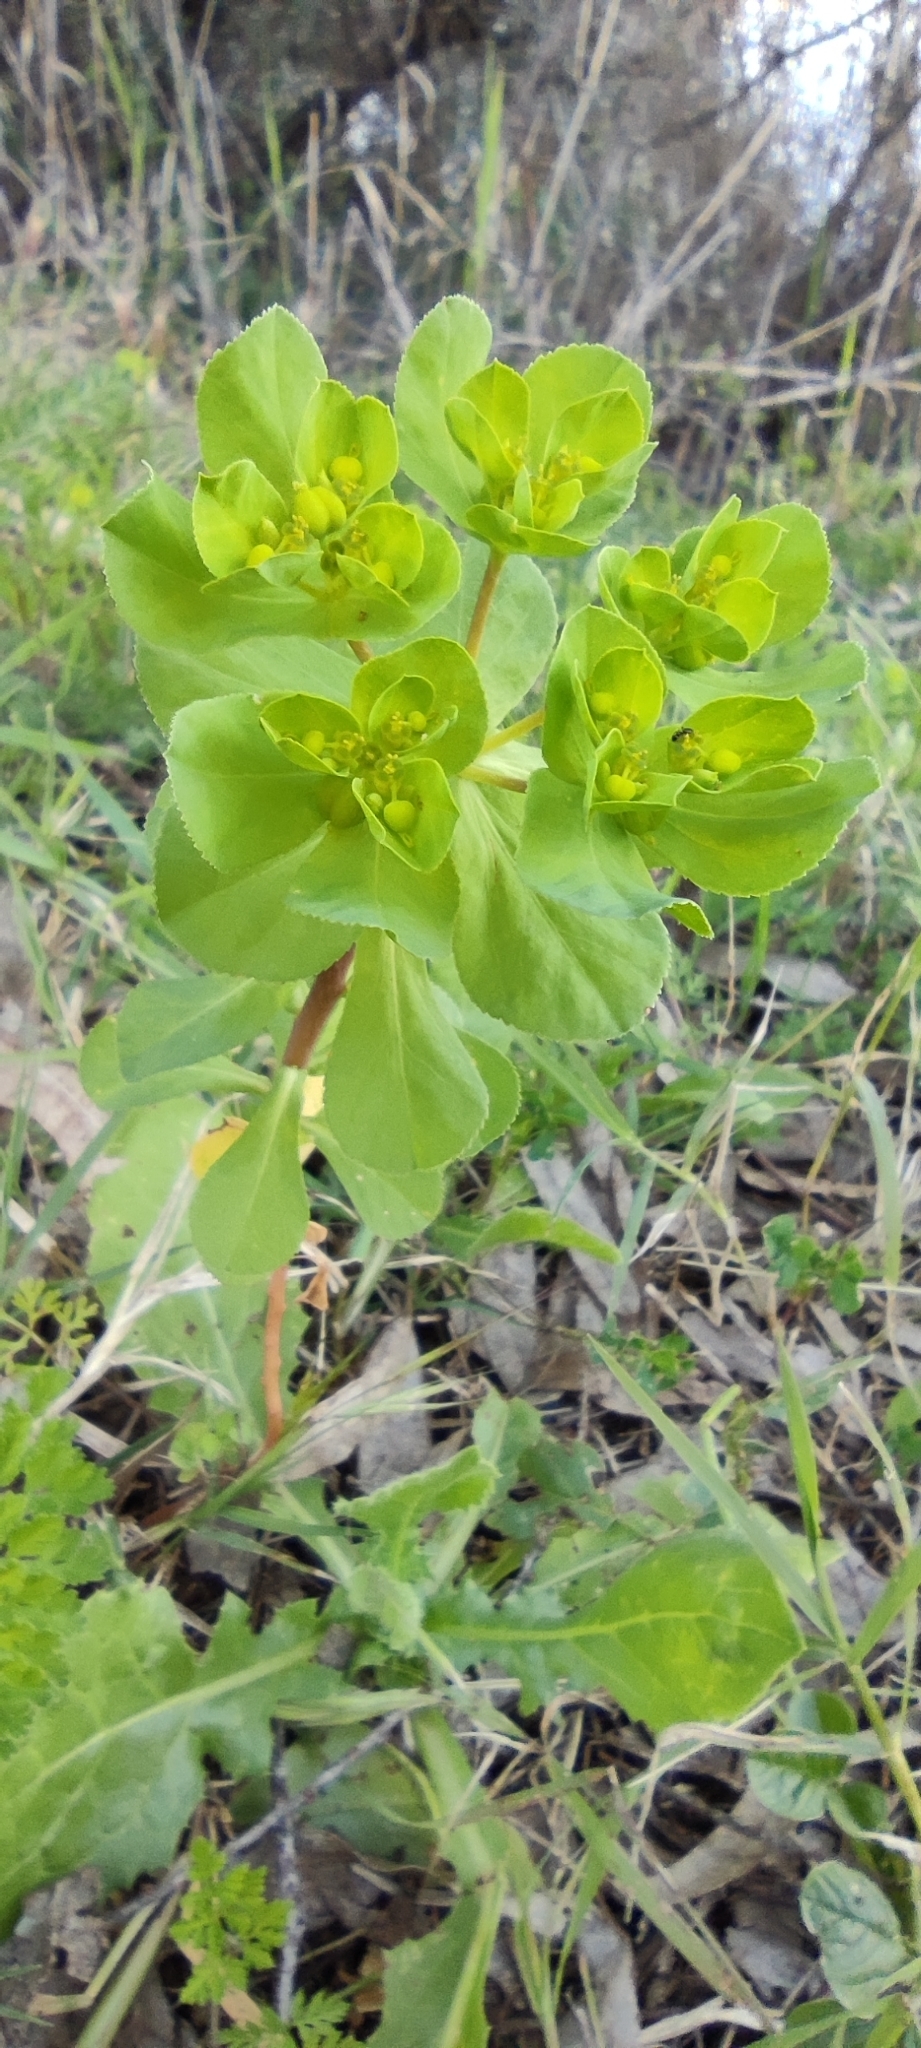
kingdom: Plantae
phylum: Tracheophyta
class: Magnoliopsida
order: Malpighiales
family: Euphorbiaceae
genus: Euphorbia
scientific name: Euphorbia helioscopia
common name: Sun spurge
